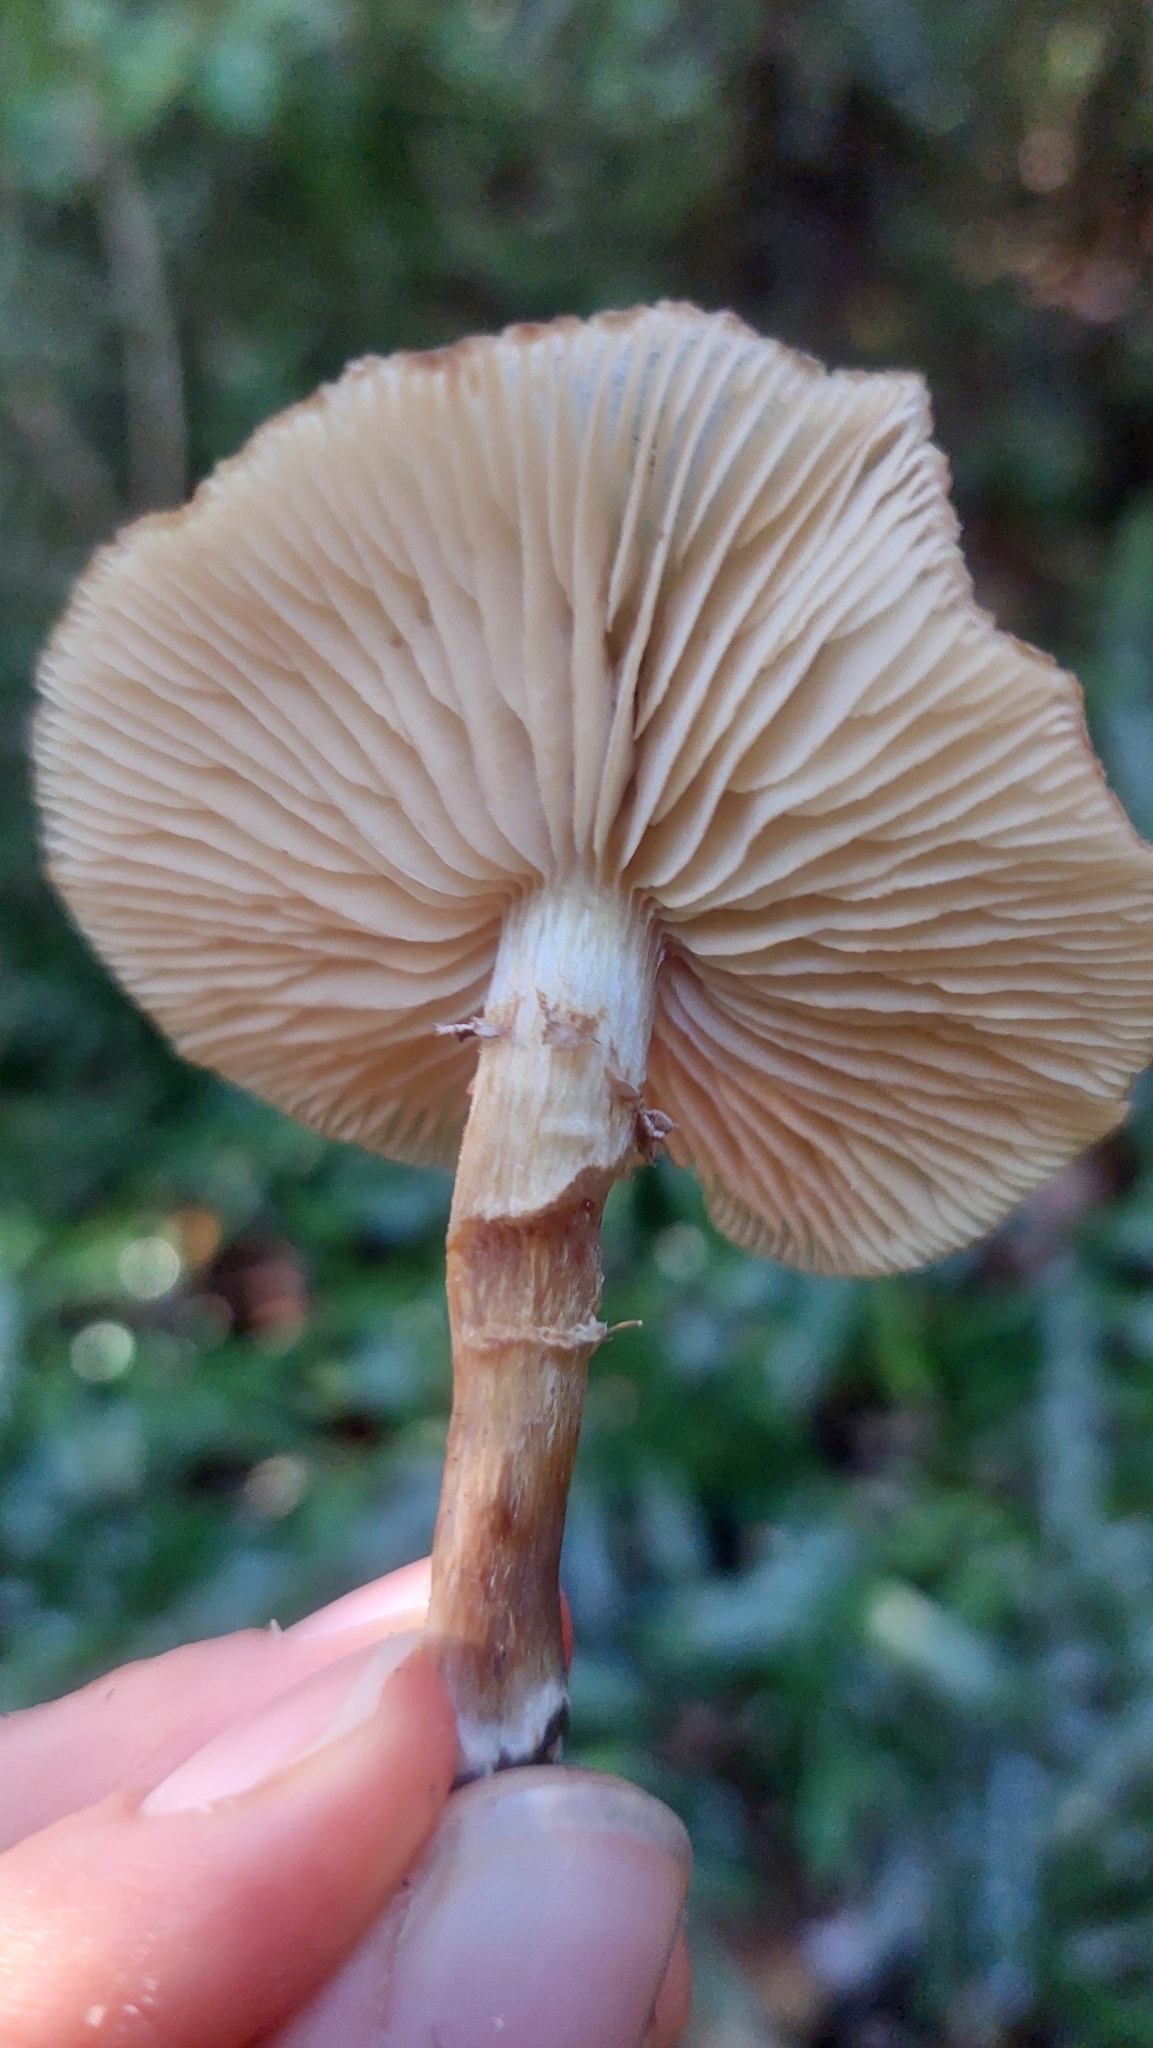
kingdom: Fungi
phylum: Basidiomycota
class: Agaricomycetes
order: Agaricales
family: Physalacriaceae
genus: Armillaria
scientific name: Armillaria novae-zelandiae
